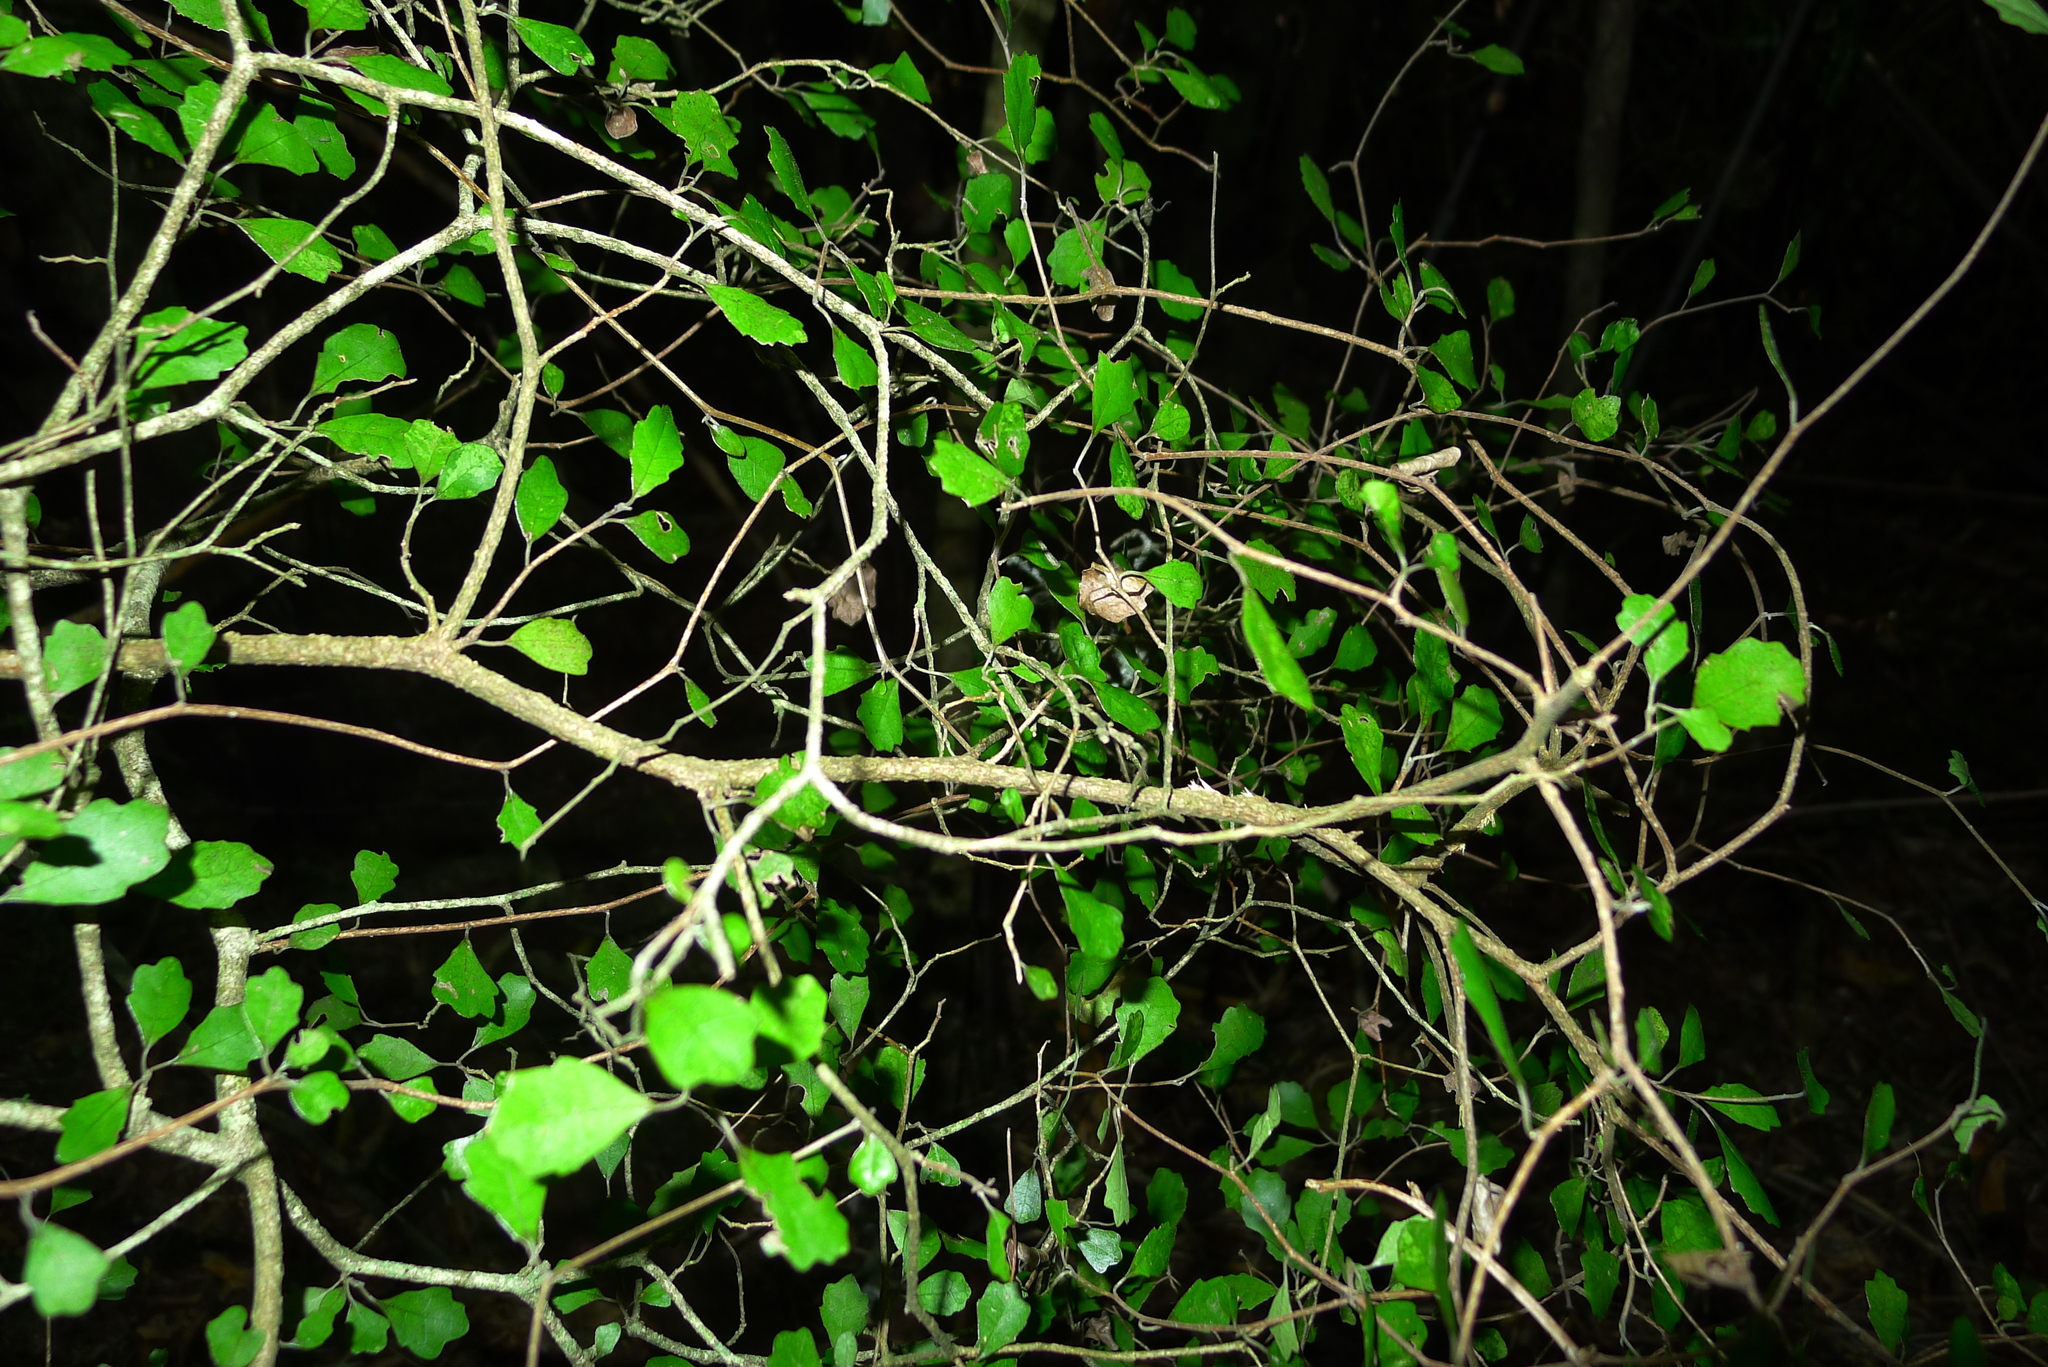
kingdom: Plantae
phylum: Tracheophyta
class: Magnoliopsida
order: Malpighiales
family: Violaceae
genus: Melicytus
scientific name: Melicytus micranthus
